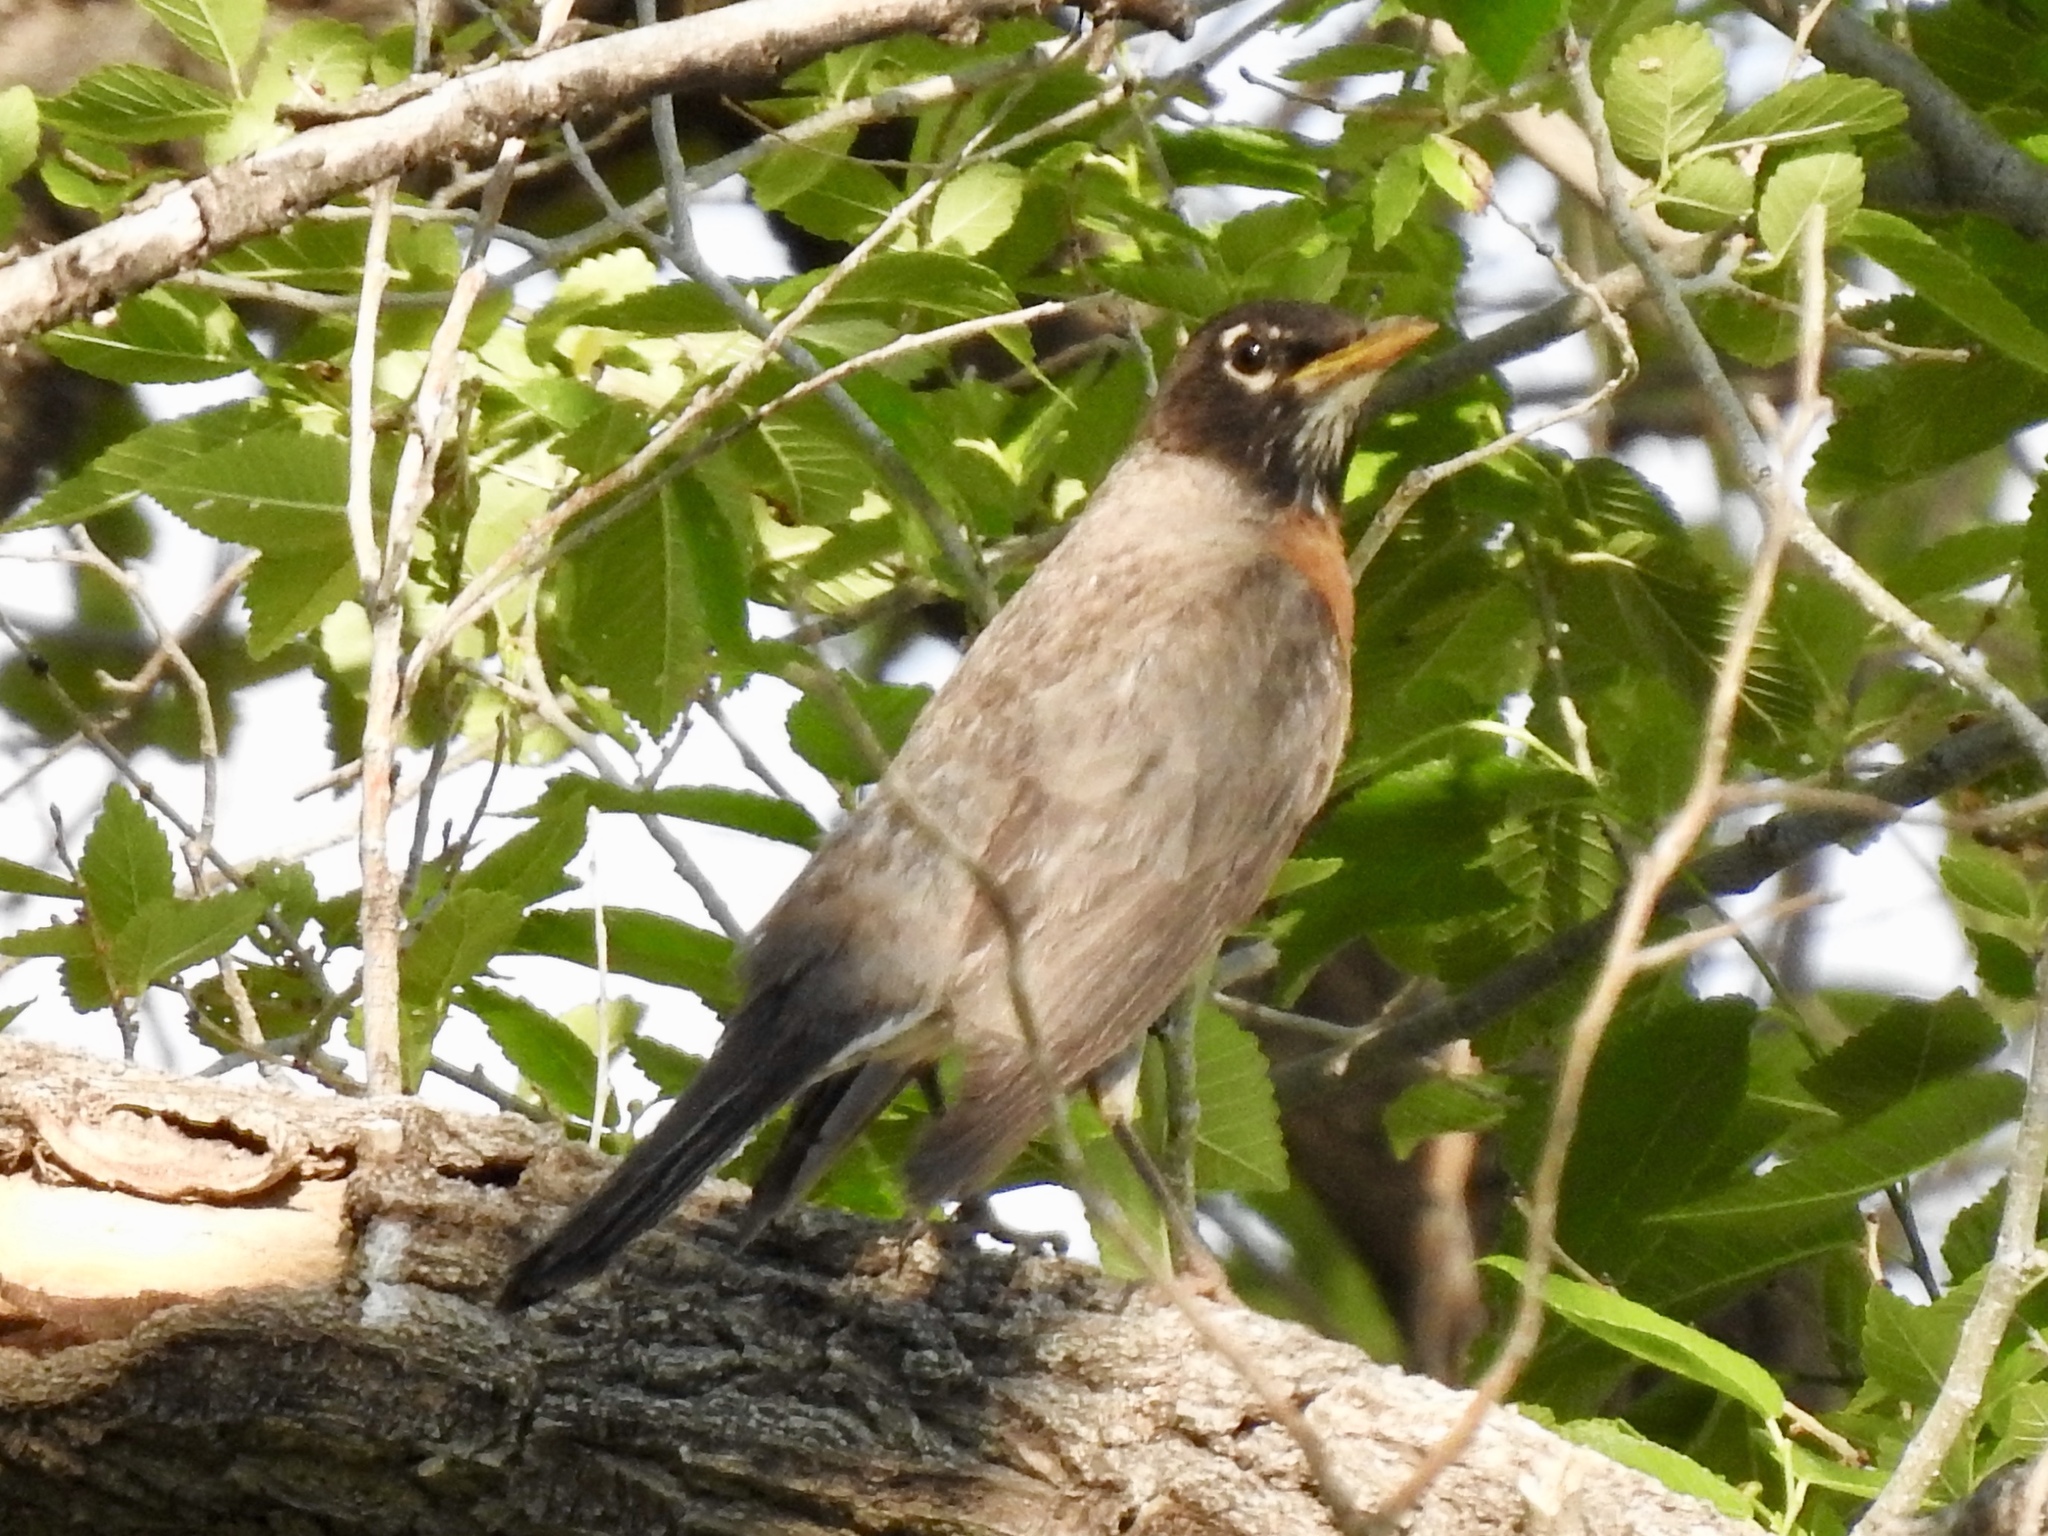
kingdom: Animalia
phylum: Chordata
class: Aves
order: Passeriformes
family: Turdidae
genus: Turdus
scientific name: Turdus migratorius
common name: American robin
